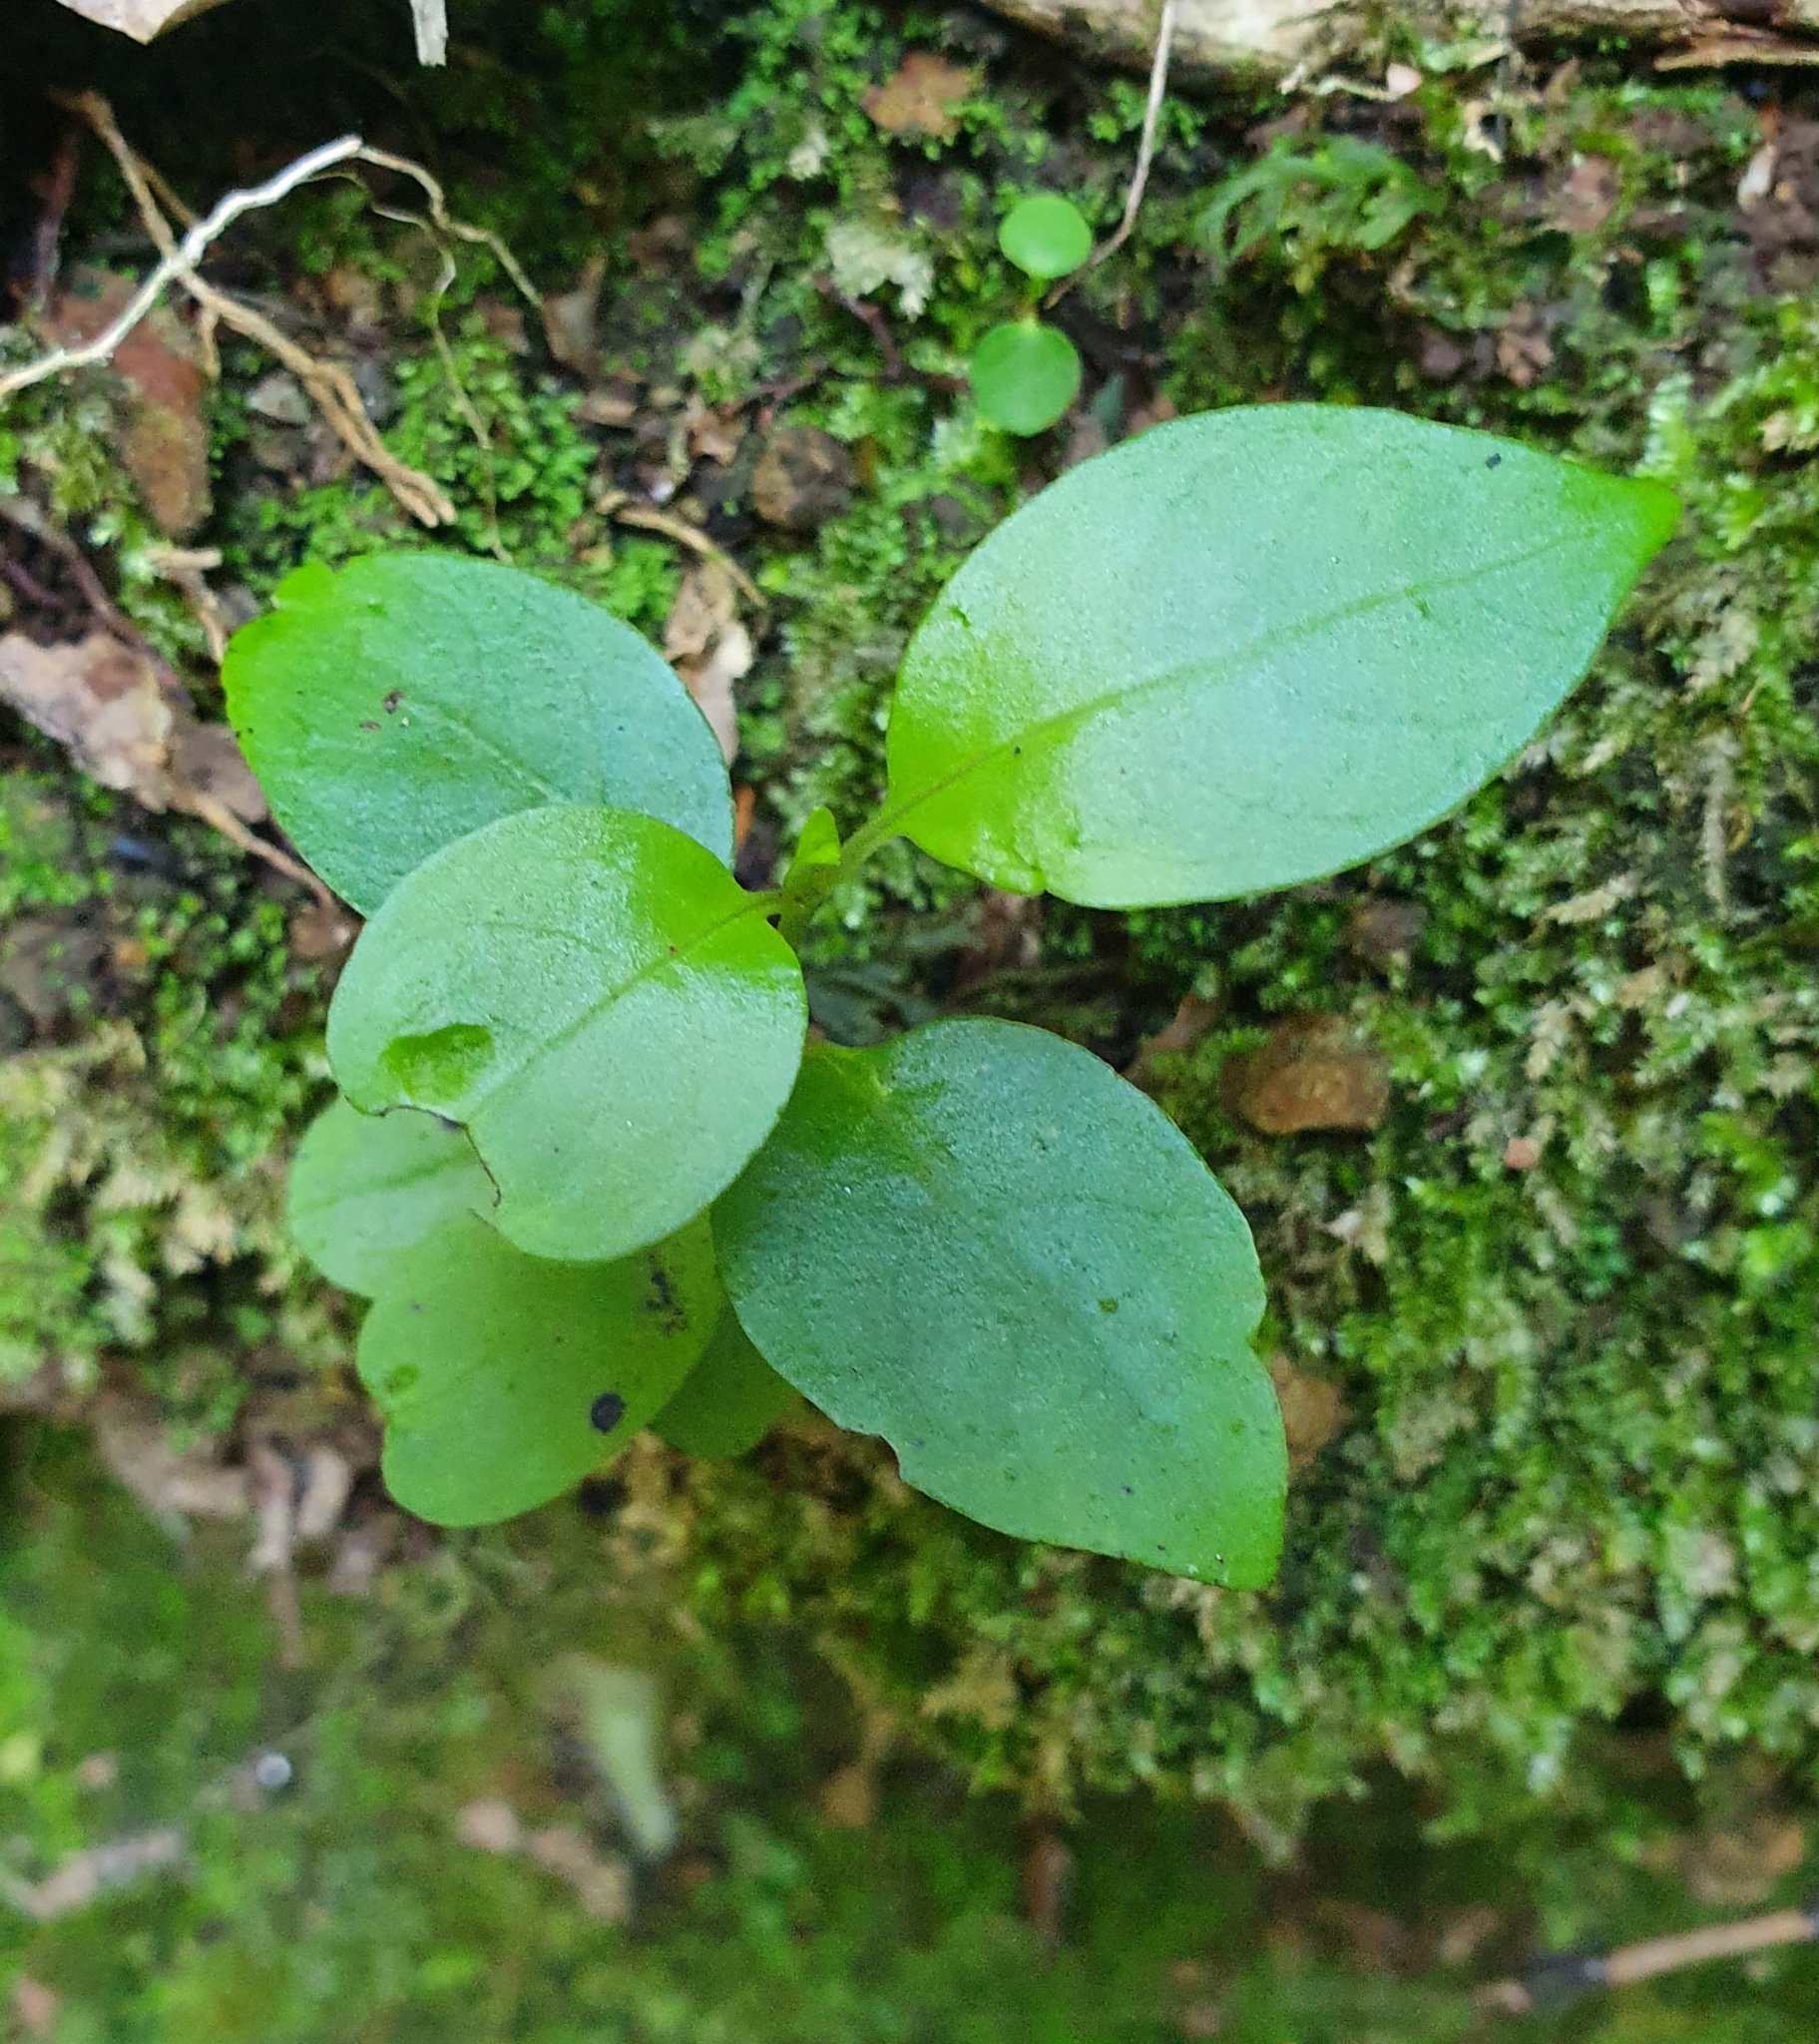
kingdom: Plantae
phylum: Tracheophyta
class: Magnoliopsida
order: Gentianales
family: Loganiaceae
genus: Geniostoma
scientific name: Geniostoma ligustrifolium
